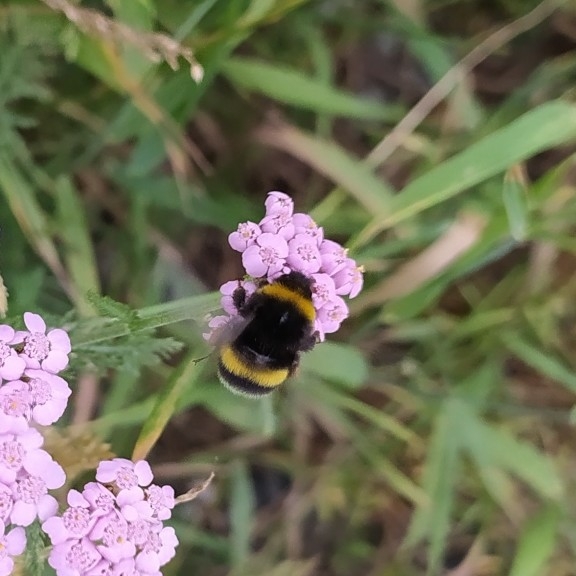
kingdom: Animalia
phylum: Arthropoda
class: Insecta
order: Hymenoptera
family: Apidae
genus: Bombus
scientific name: Bombus
